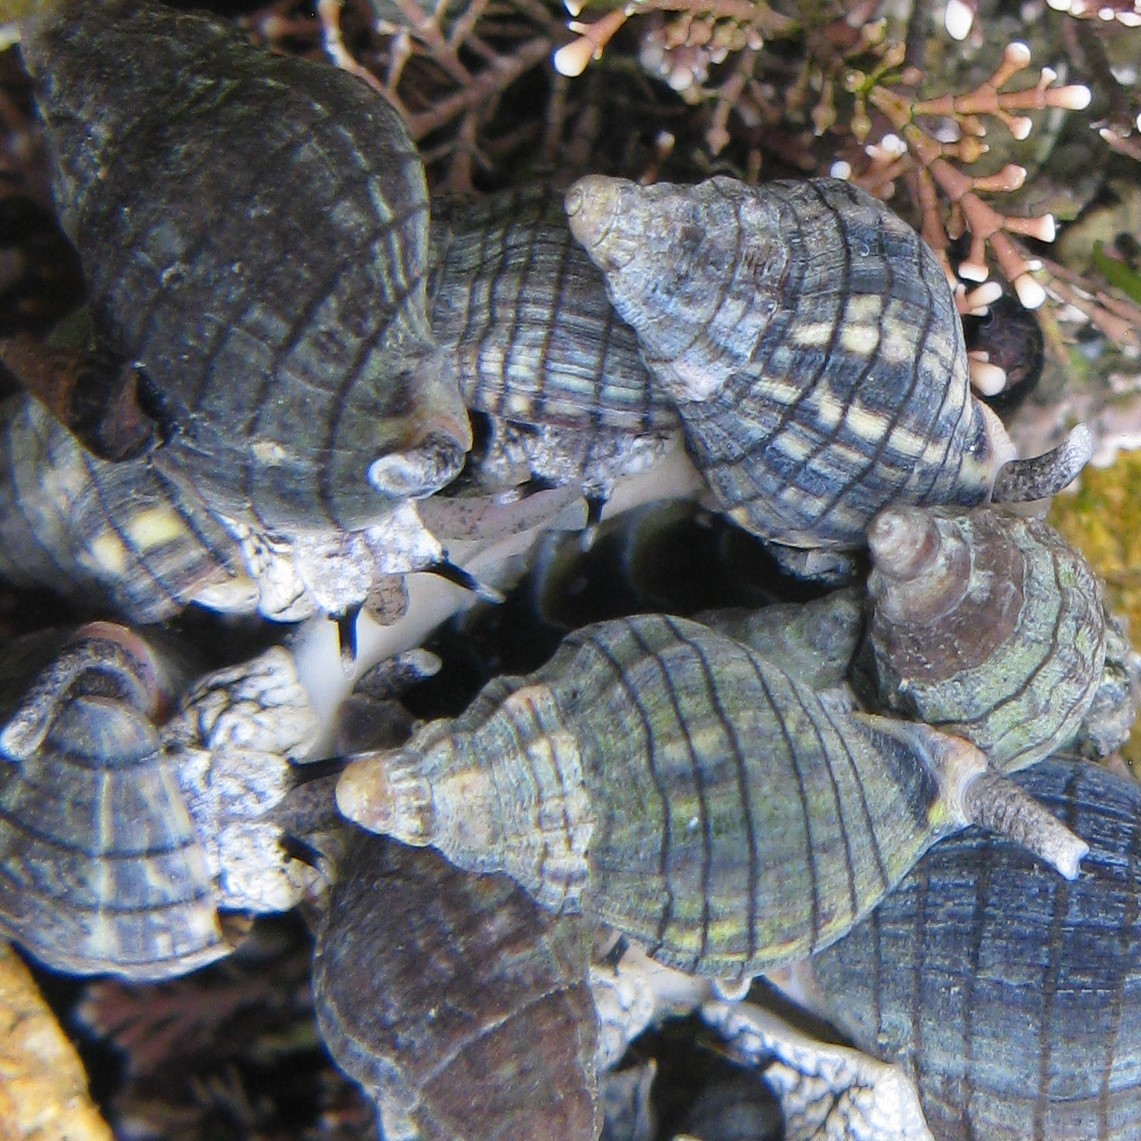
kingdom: Animalia
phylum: Mollusca
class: Gastropoda
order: Neogastropoda
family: Cominellidae
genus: Cominella
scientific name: Cominella virgata
